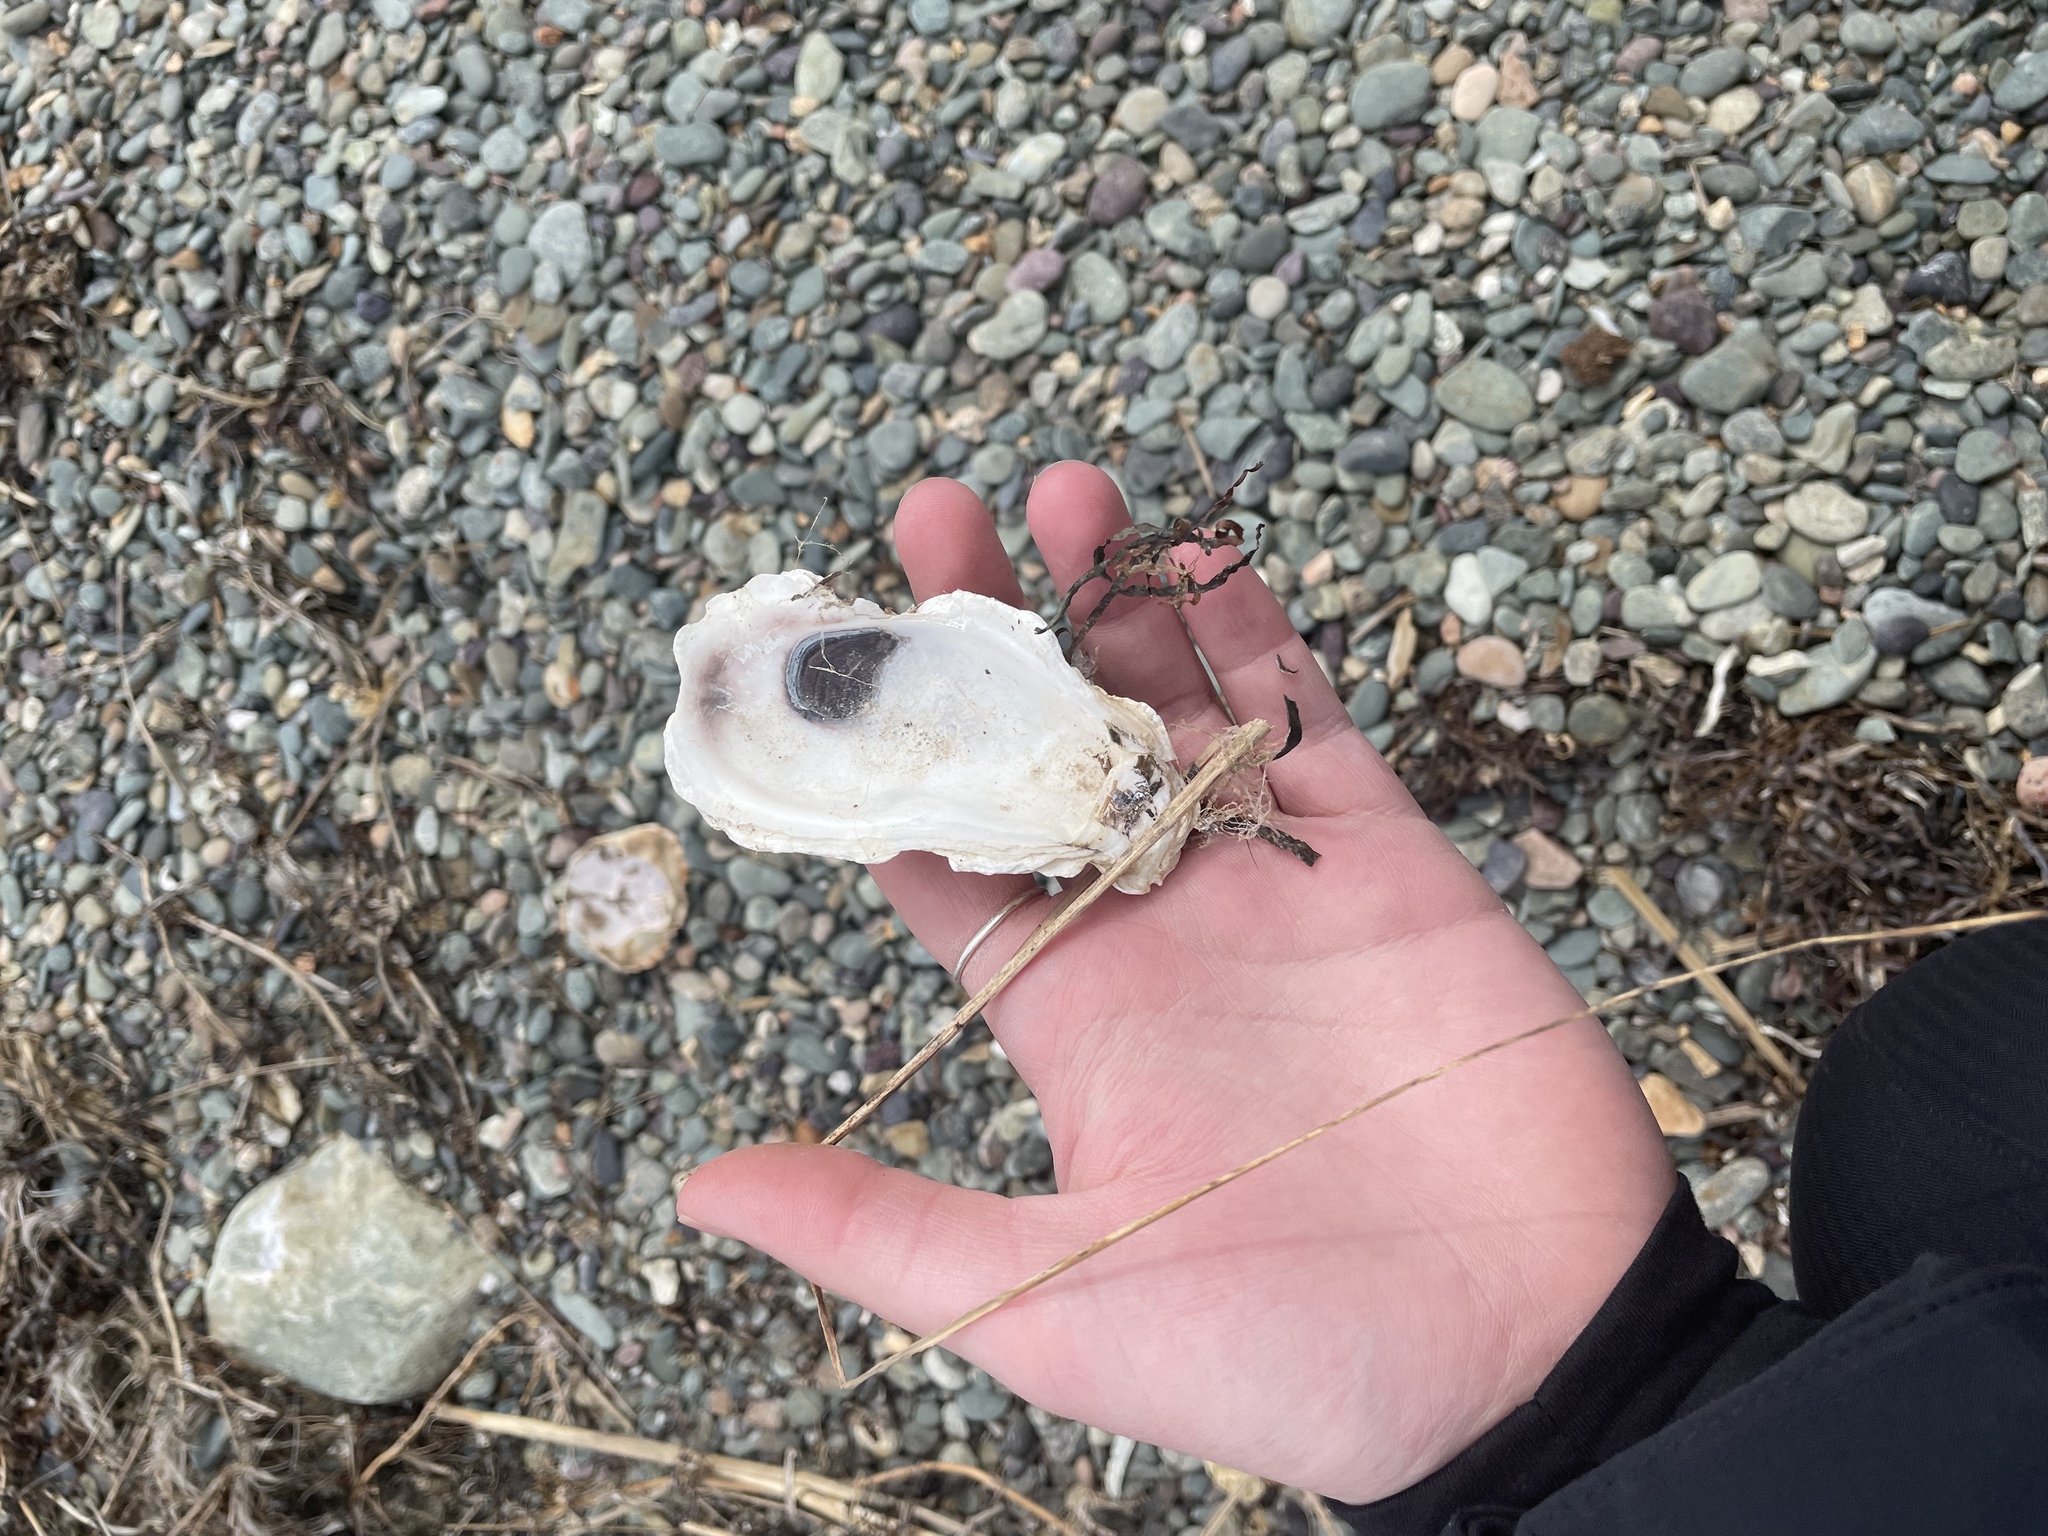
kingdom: Animalia
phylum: Mollusca
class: Bivalvia
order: Ostreida
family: Ostreidae
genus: Crassostrea
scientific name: Crassostrea virginica
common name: American oyster
